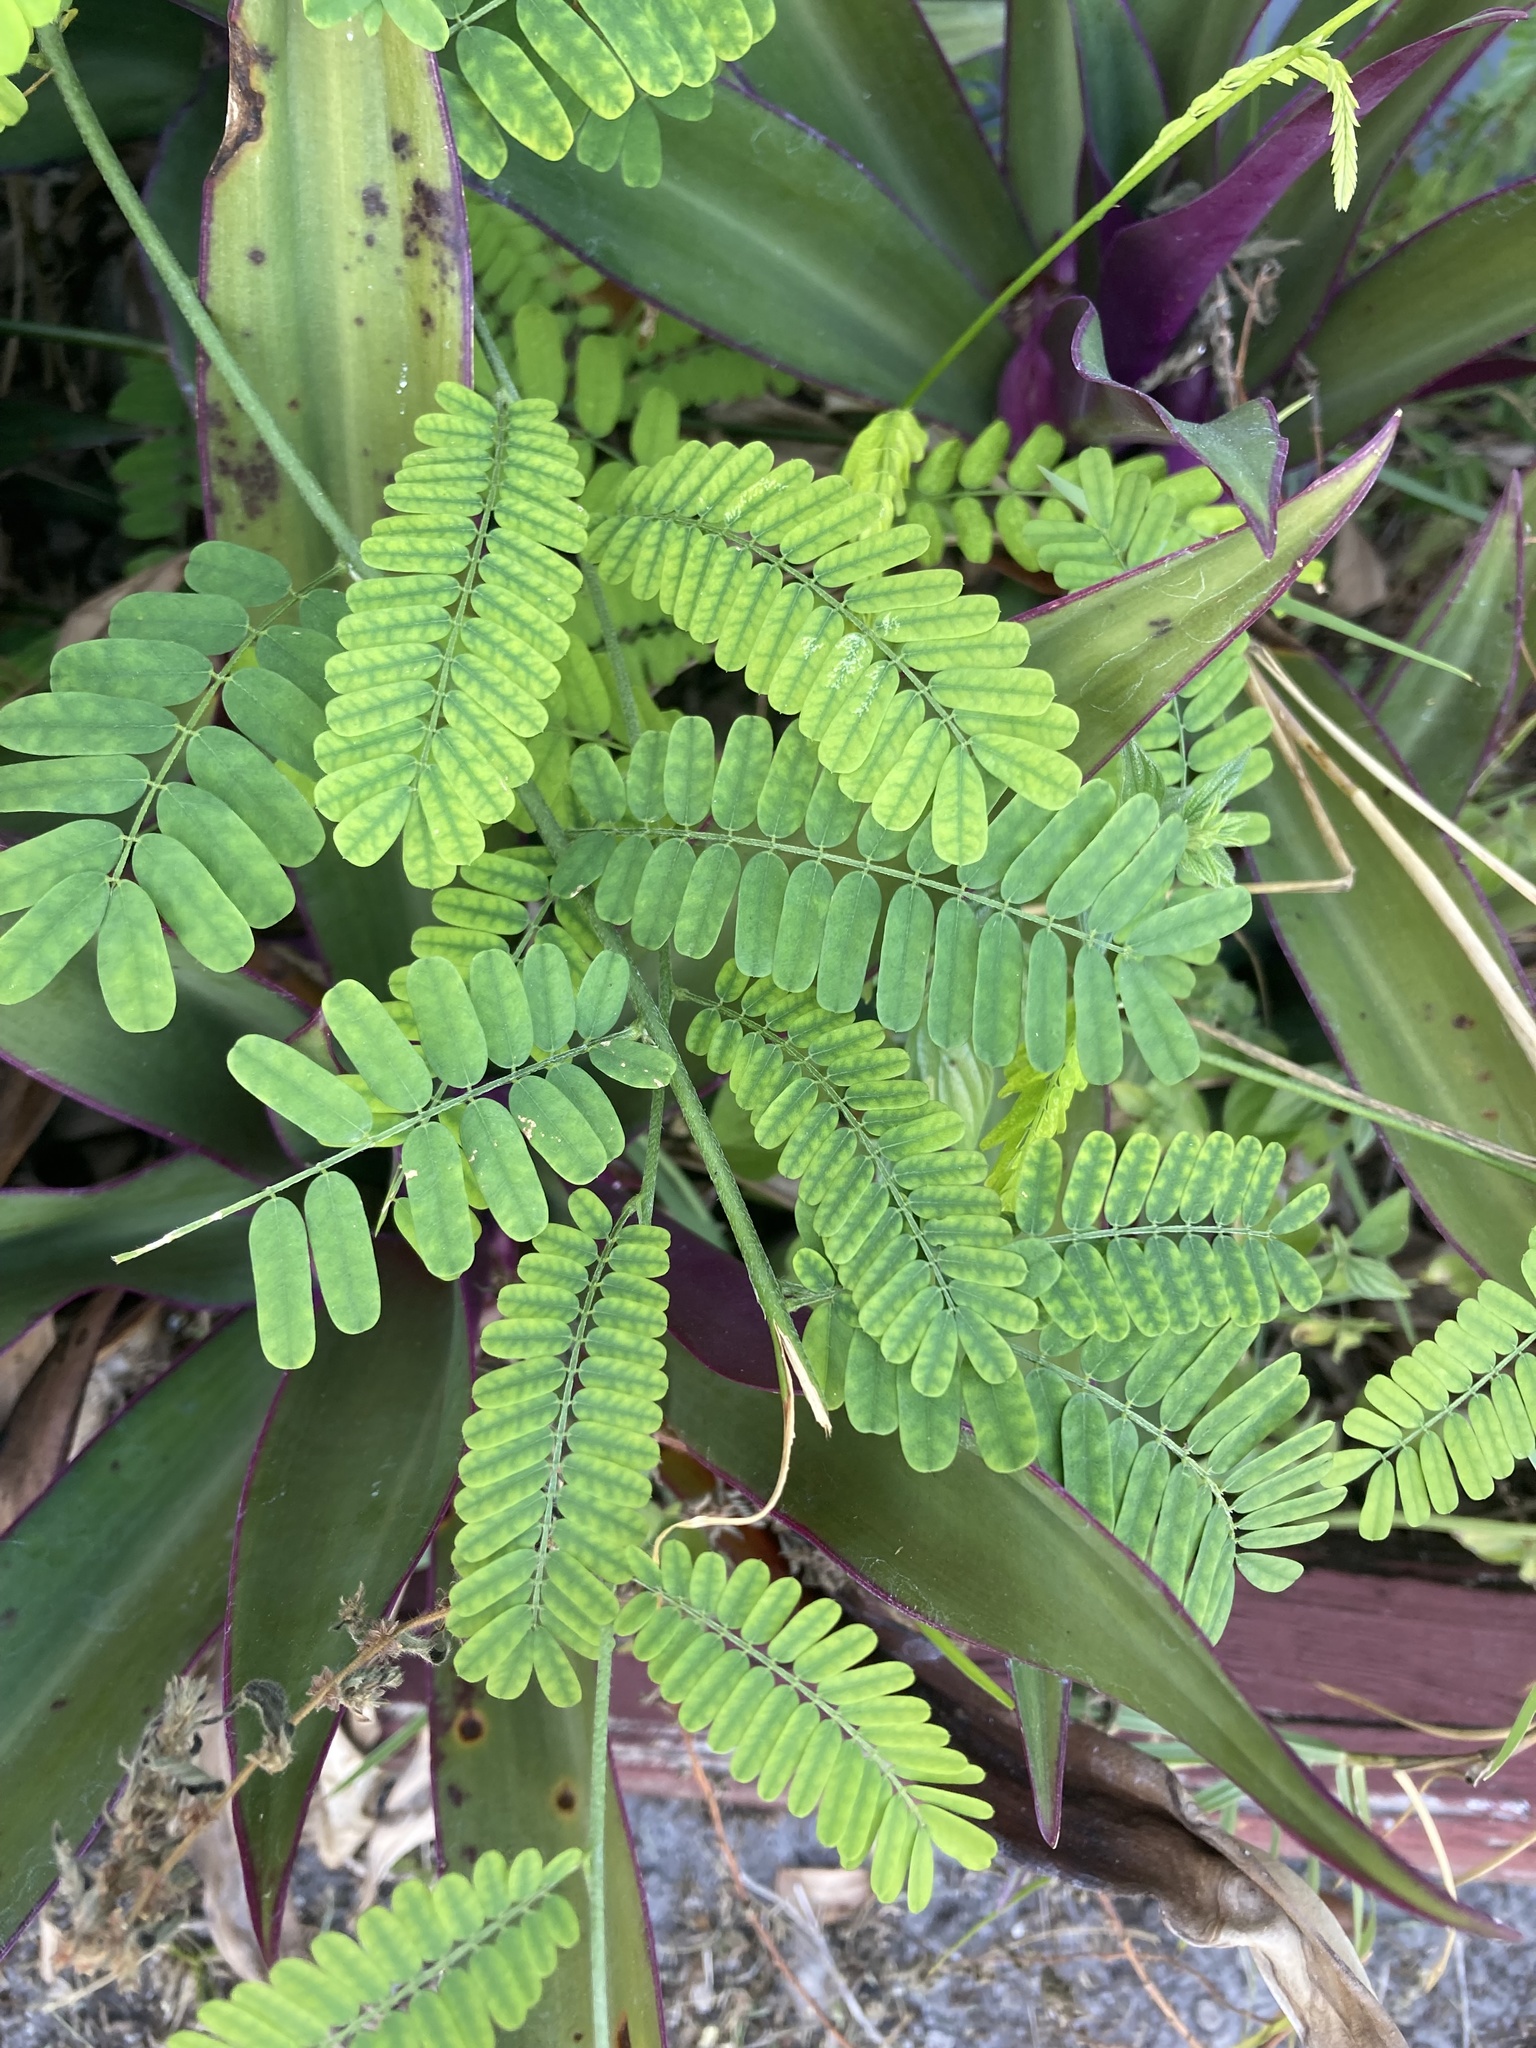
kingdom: Plantae
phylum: Tracheophyta
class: Magnoliopsida
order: Fabales
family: Fabaceae
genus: Abrus
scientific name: Abrus precatorius
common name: Rosarypea
